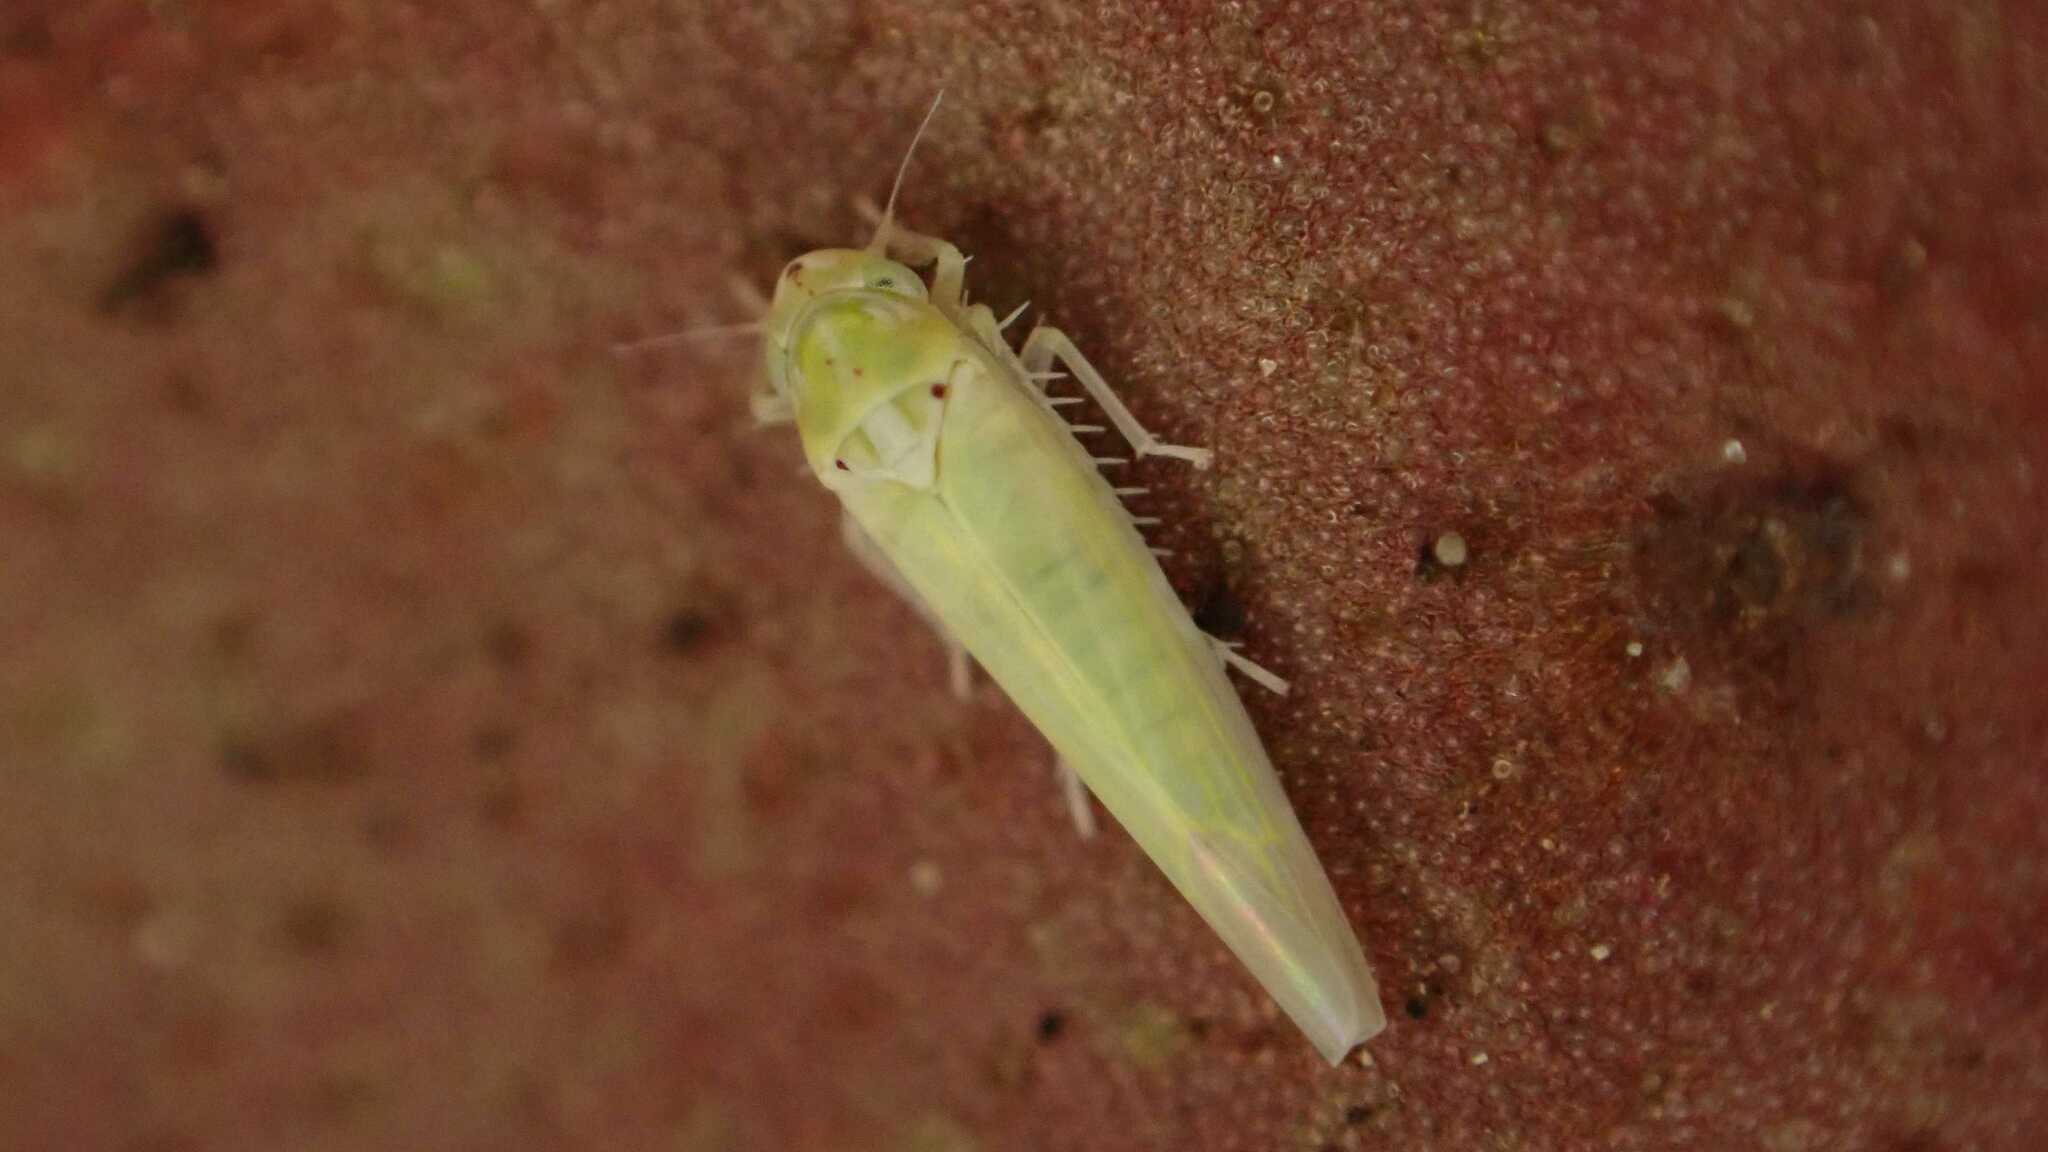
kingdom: Animalia
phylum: Arthropoda
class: Insecta
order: Hemiptera
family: Cicadellidae
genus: Zygina
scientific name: Zygina nivea
